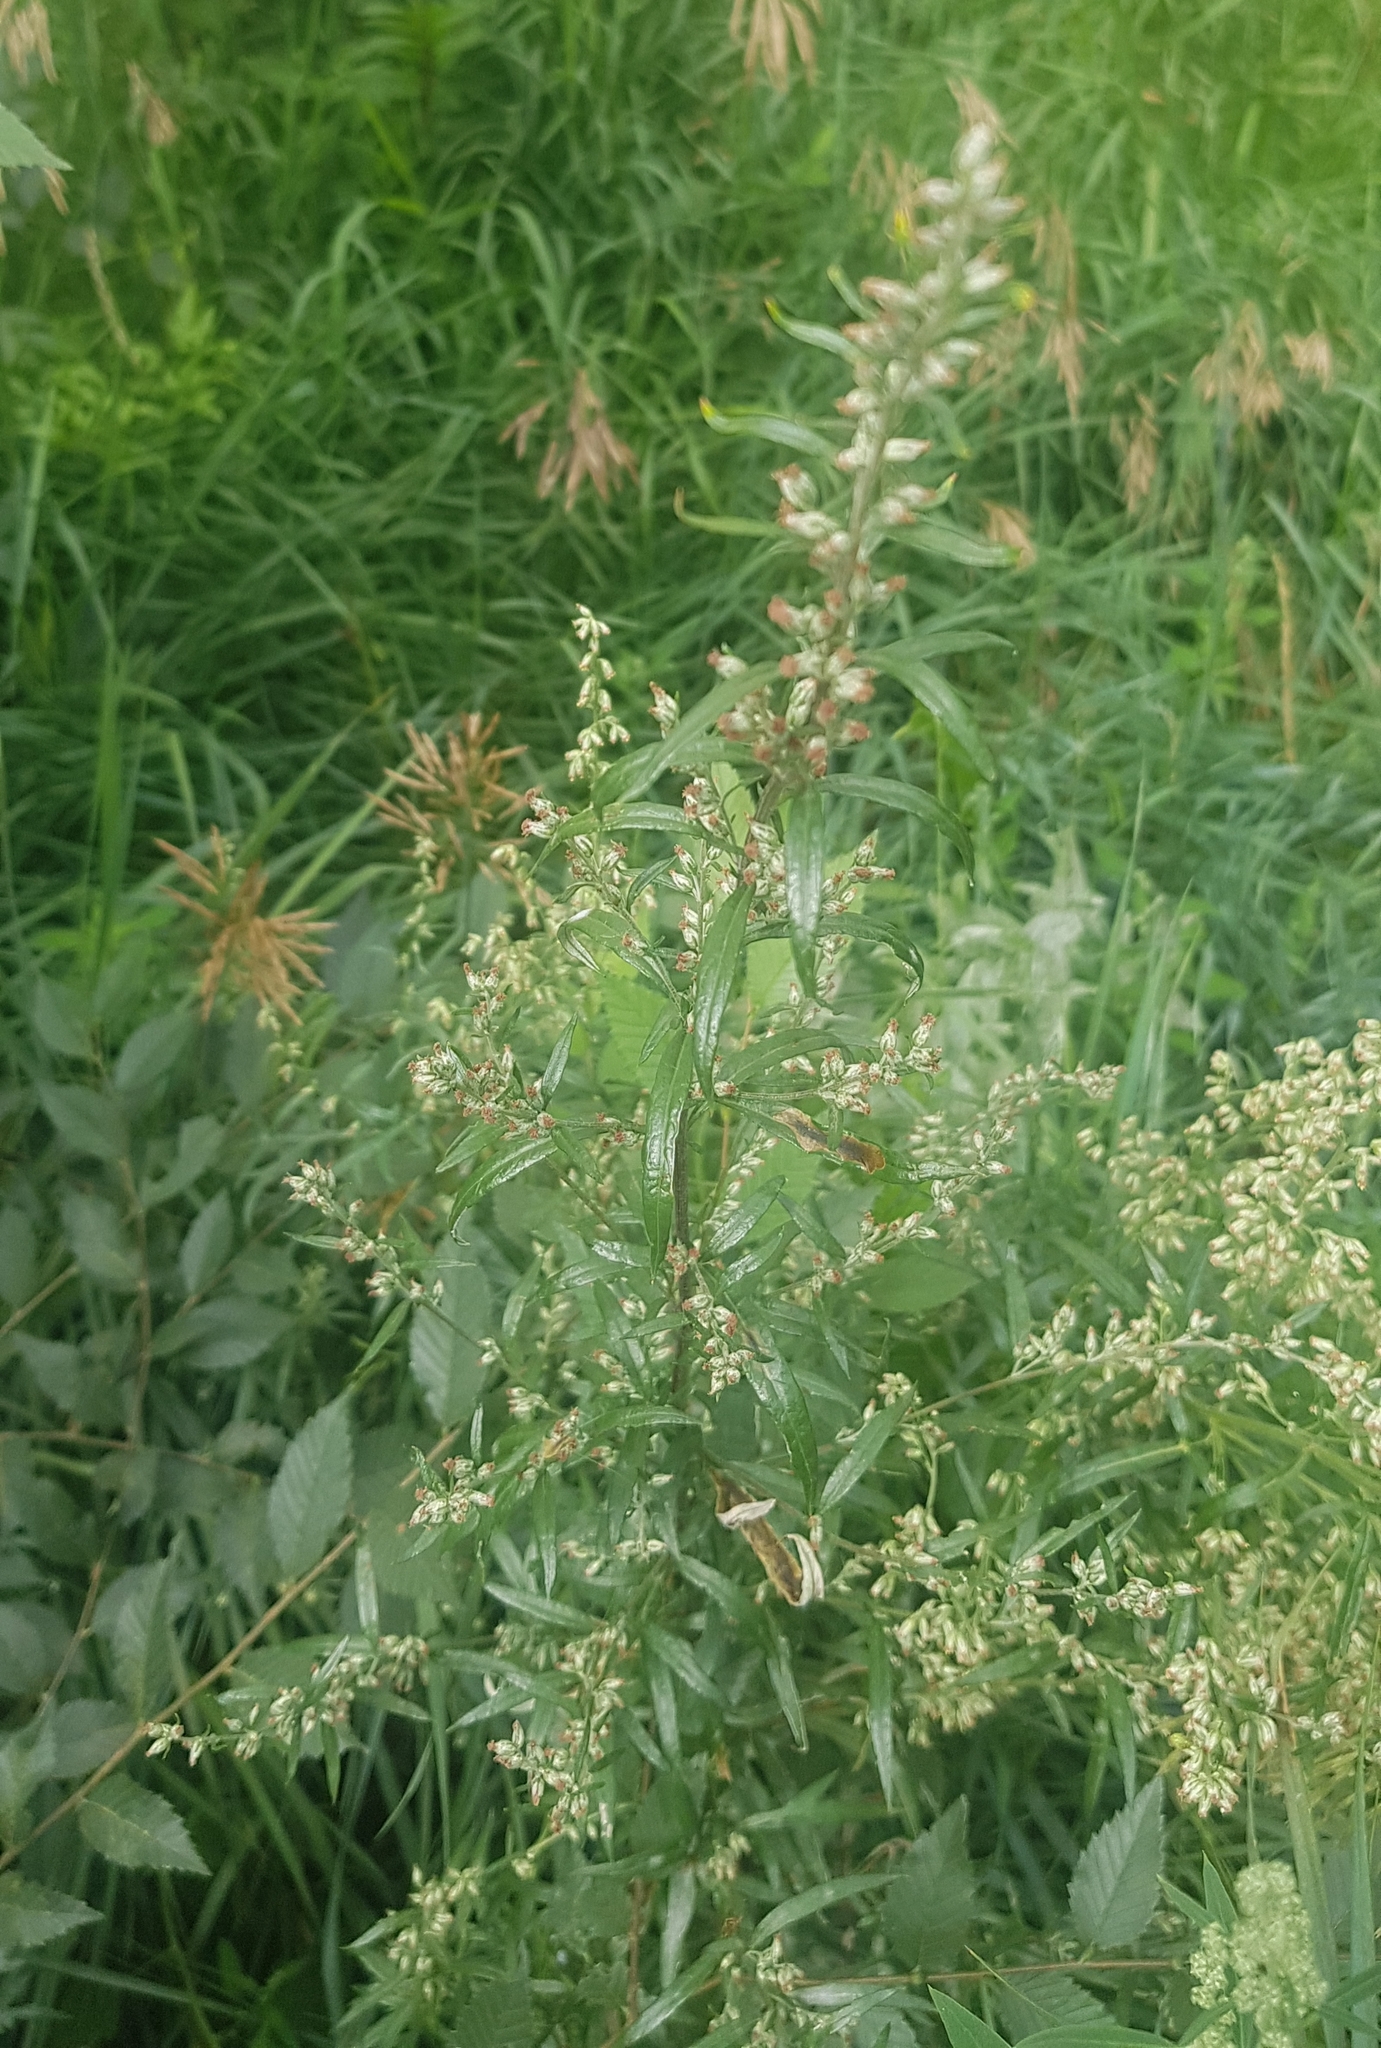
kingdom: Plantae
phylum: Tracheophyta
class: Magnoliopsida
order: Asterales
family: Asteraceae
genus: Artemisia
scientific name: Artemisia vulgaris
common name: Mugwort
